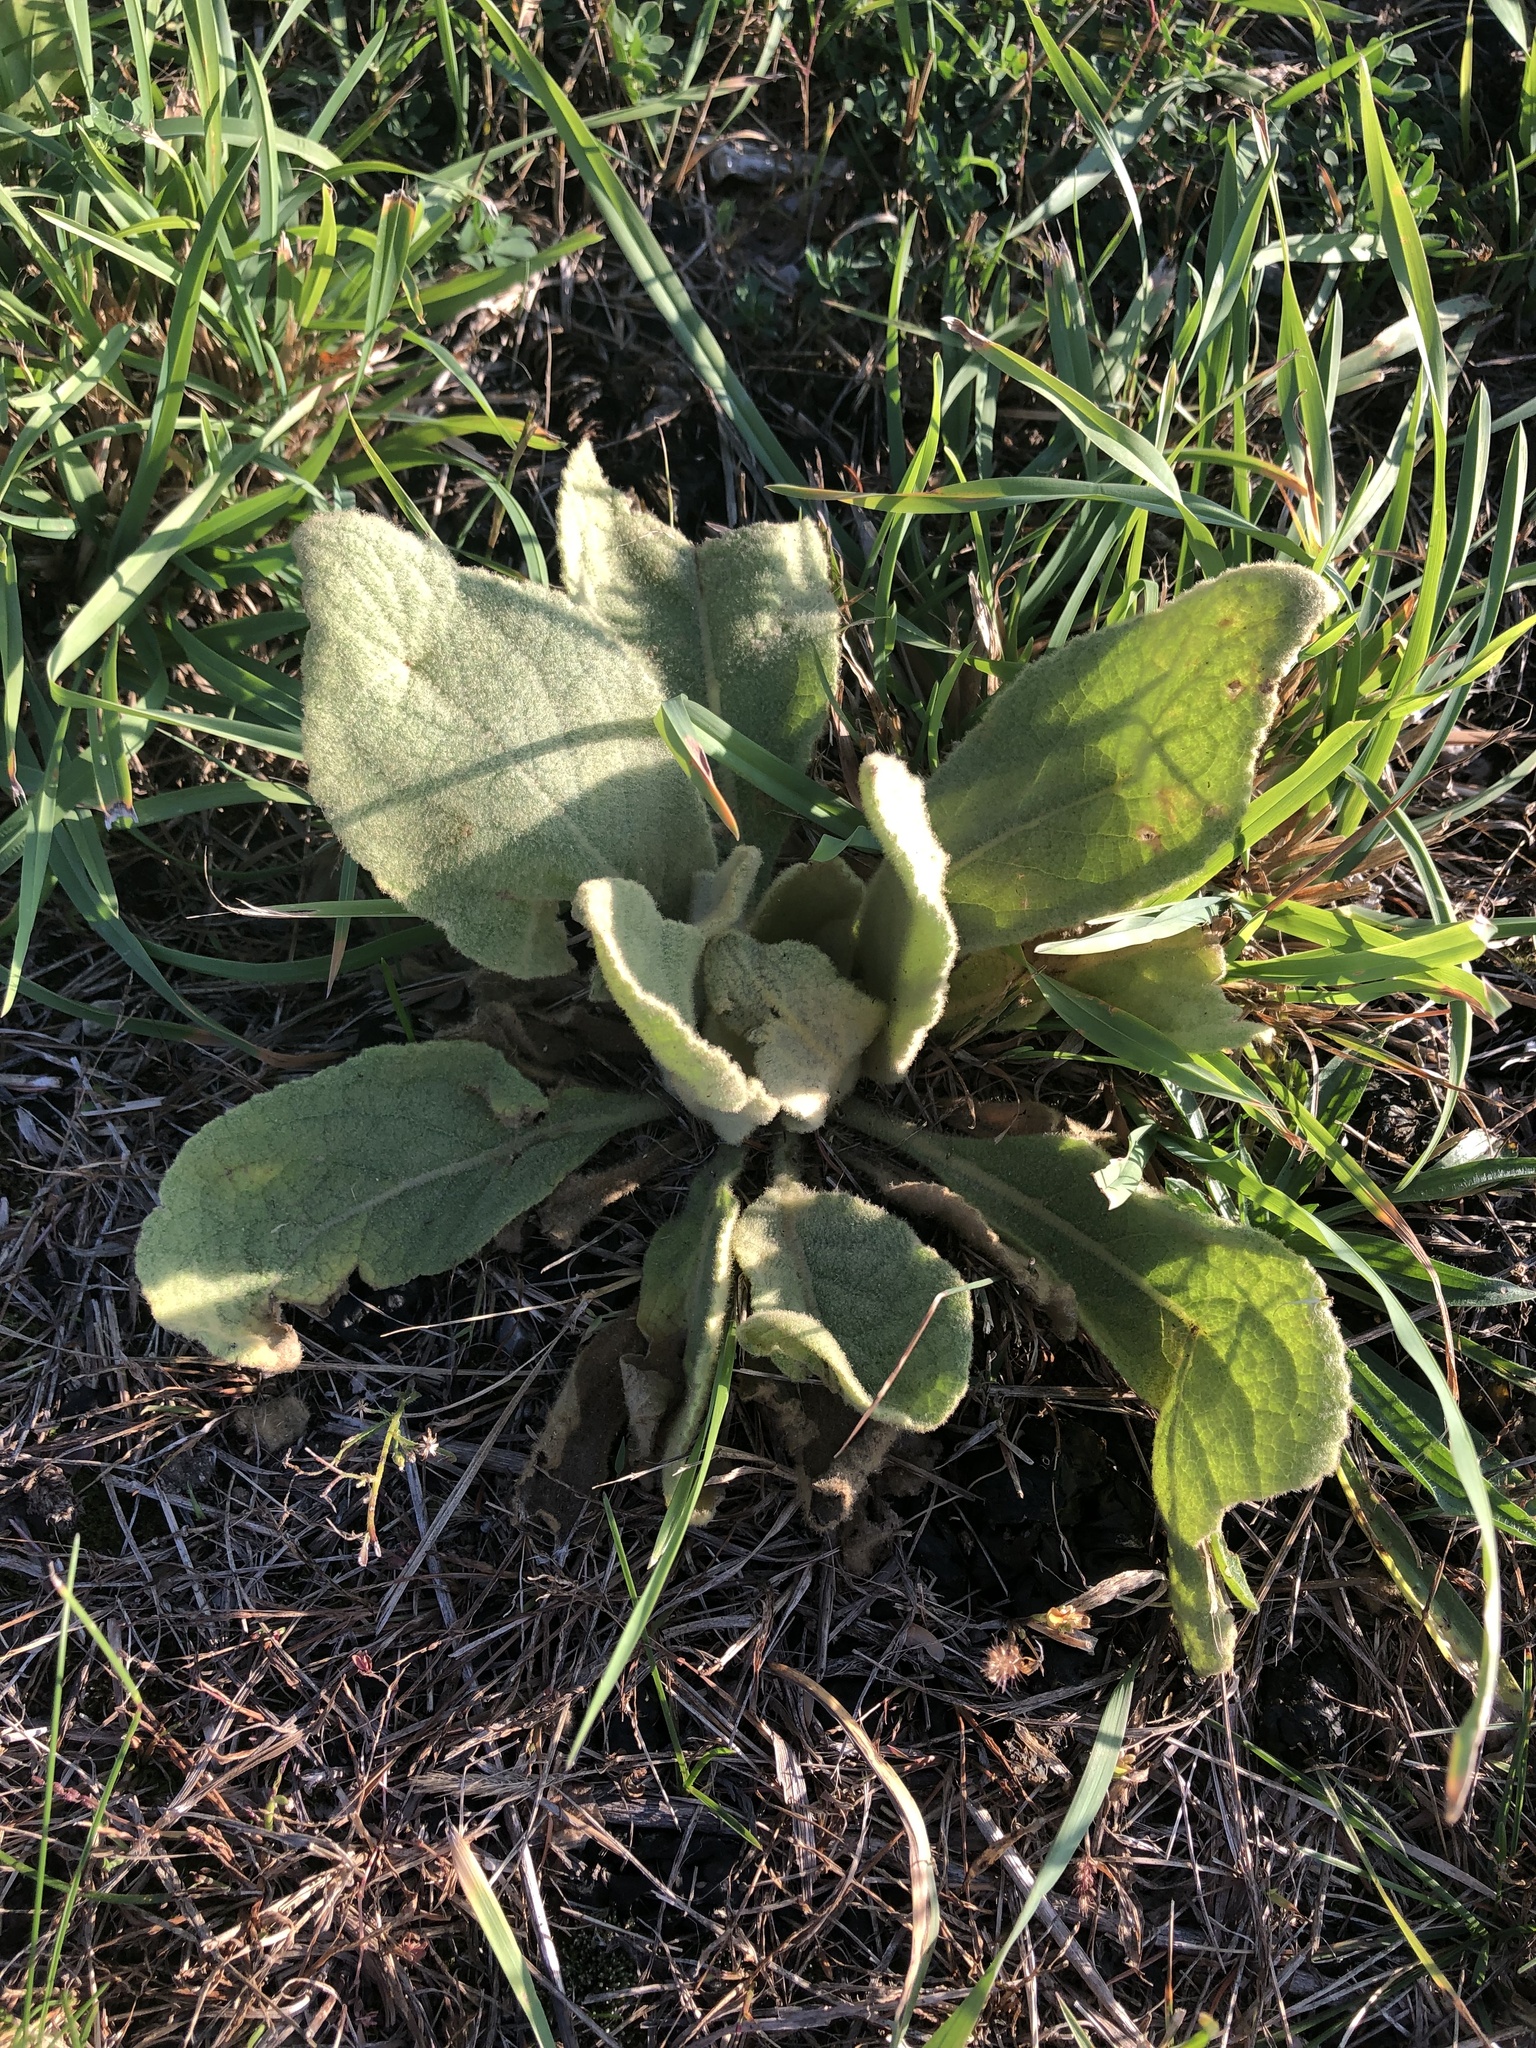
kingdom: Plantae
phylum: Tracheophyta
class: Magnoliopsida
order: Lamiales
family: Scrophulariaceae
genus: Verbascum
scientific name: Verbascum thapsus
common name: Common mullein
